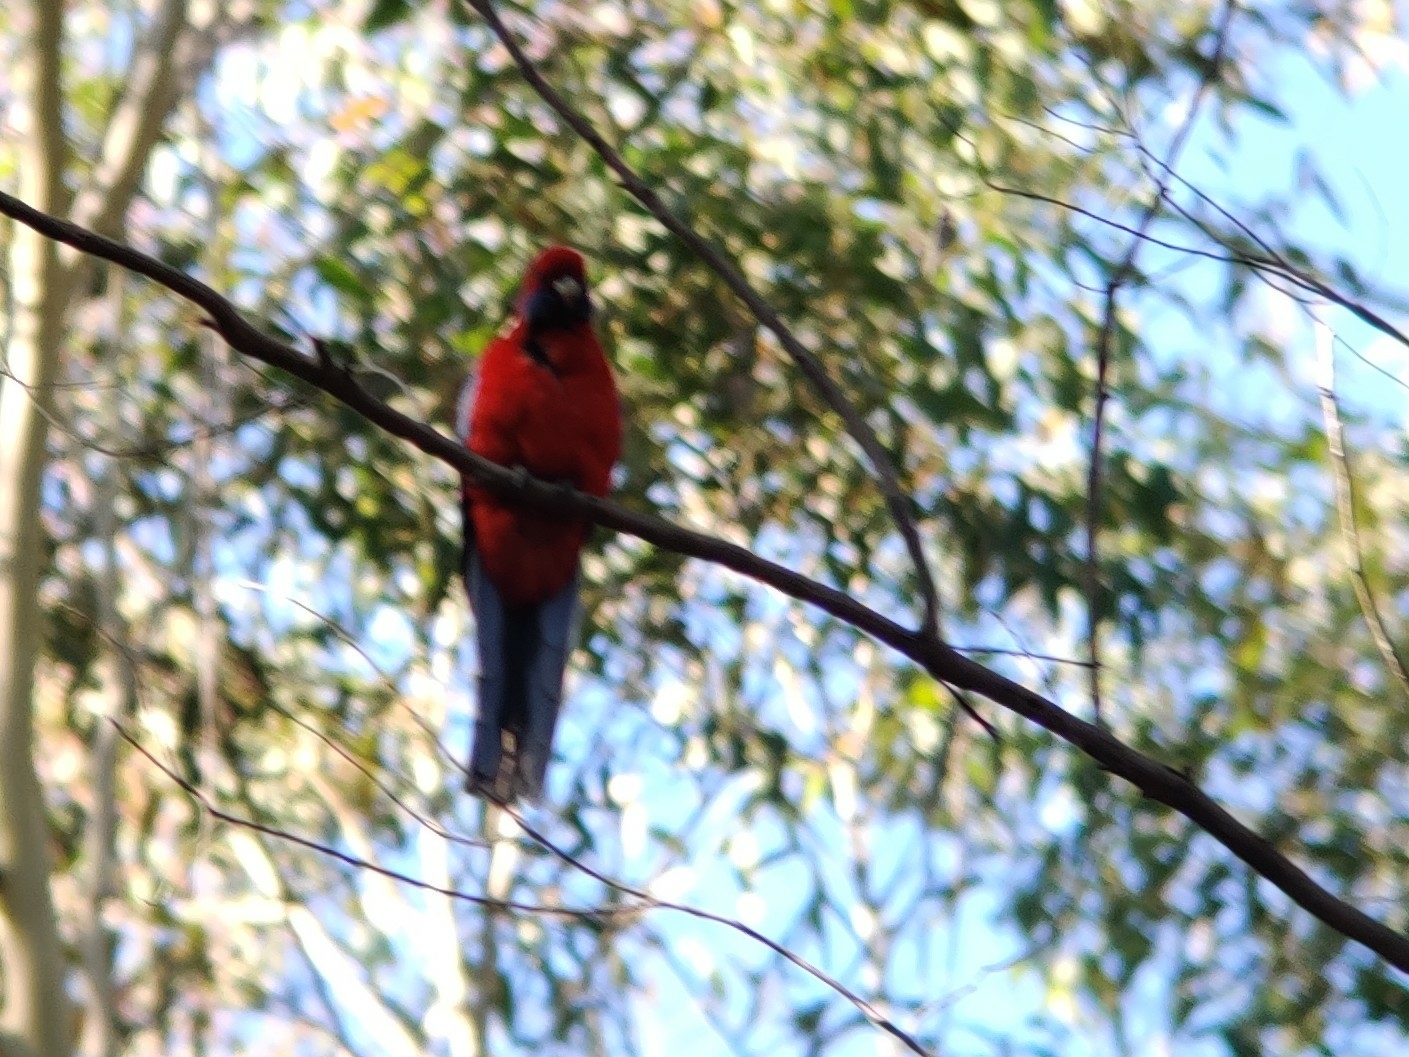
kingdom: Animalia
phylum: Chordata
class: Aves
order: Psittaciformes
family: Psittacidae
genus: Platycercus
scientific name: Platycercus elegans
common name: Crimson rosella
